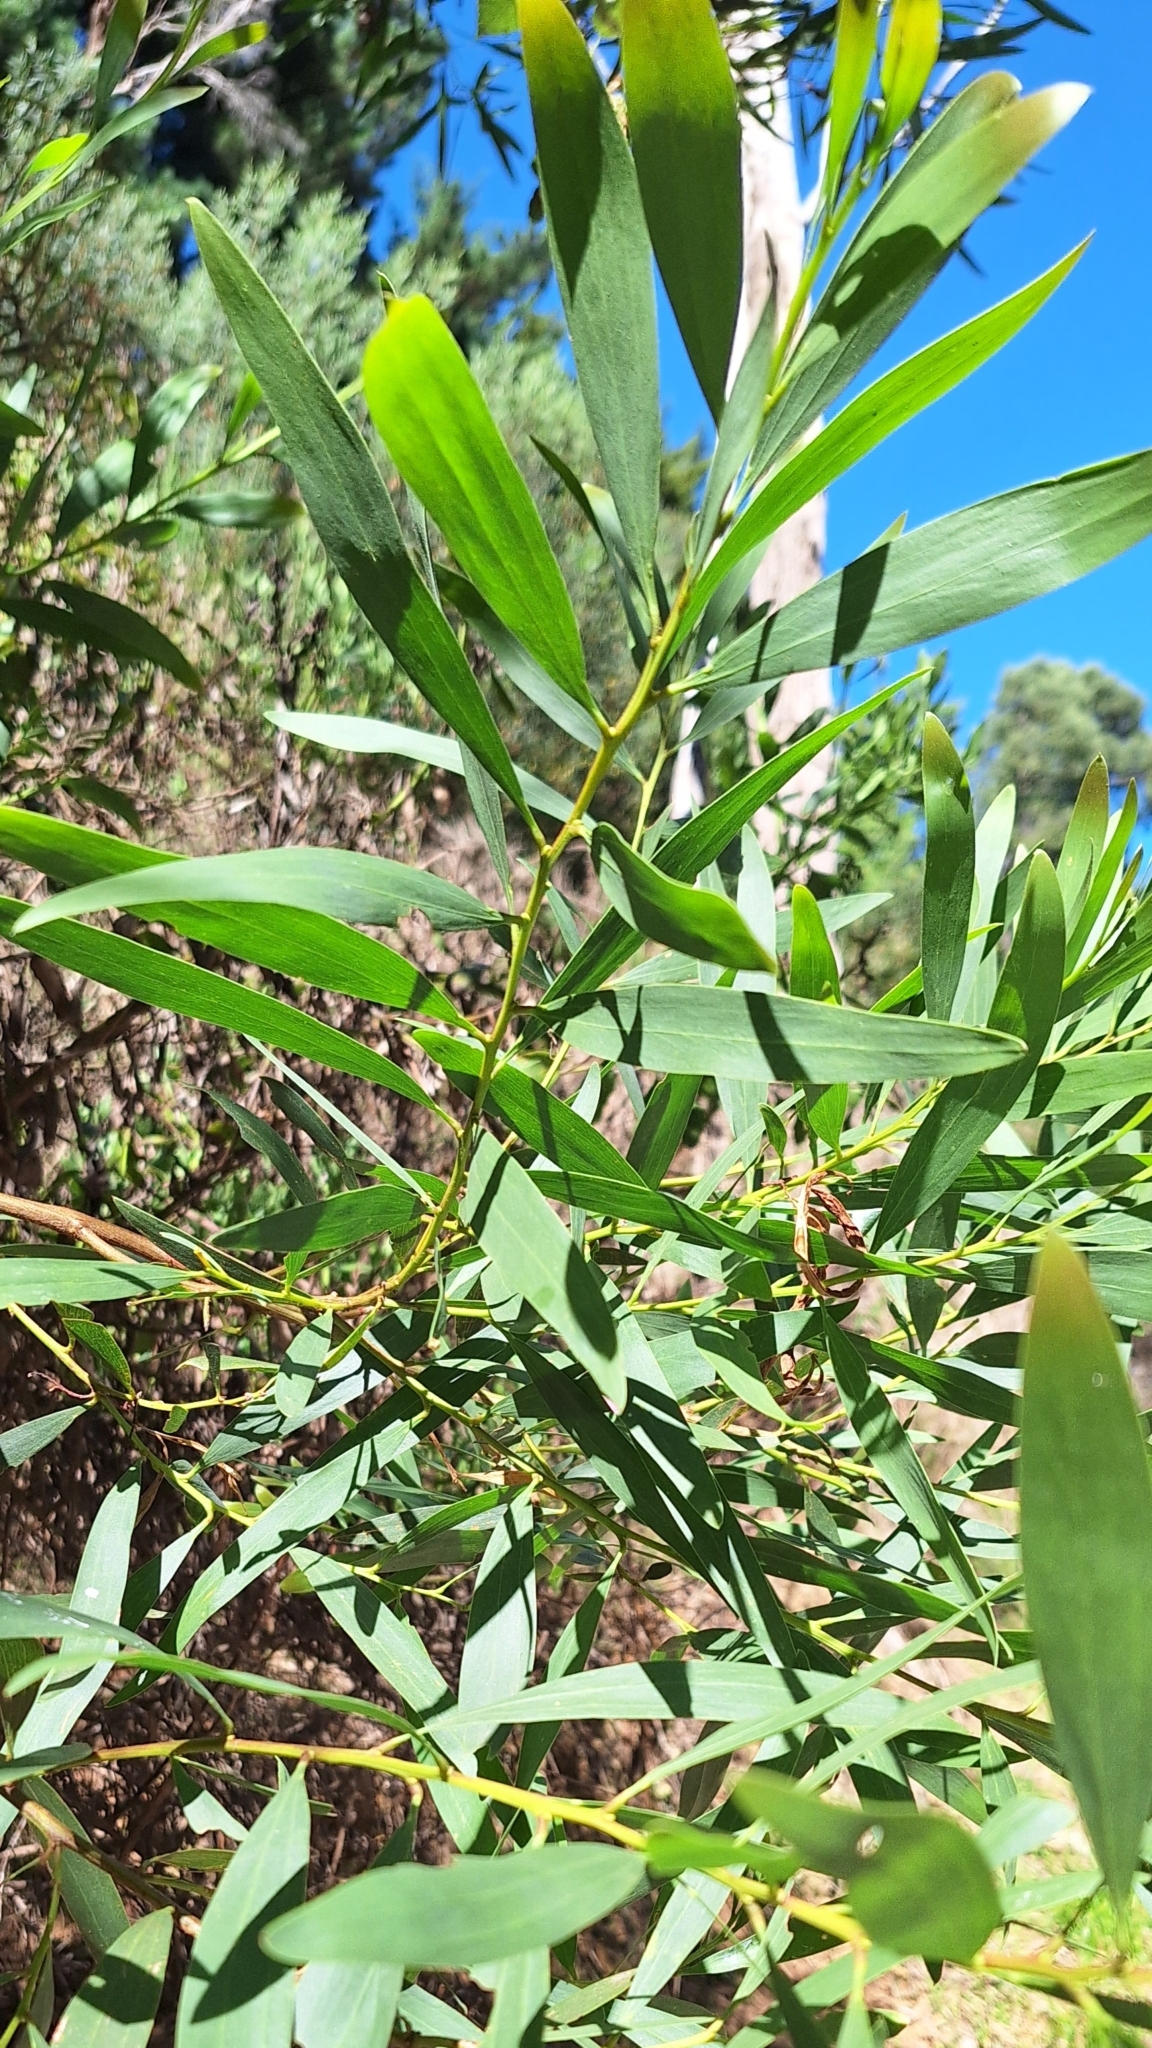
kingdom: Plantae
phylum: Tracheophyta
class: Magnoliopsida
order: Fabales
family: Fabaceae
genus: Acacia
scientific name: Acacia longifolia
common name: Sydney golden wattle
